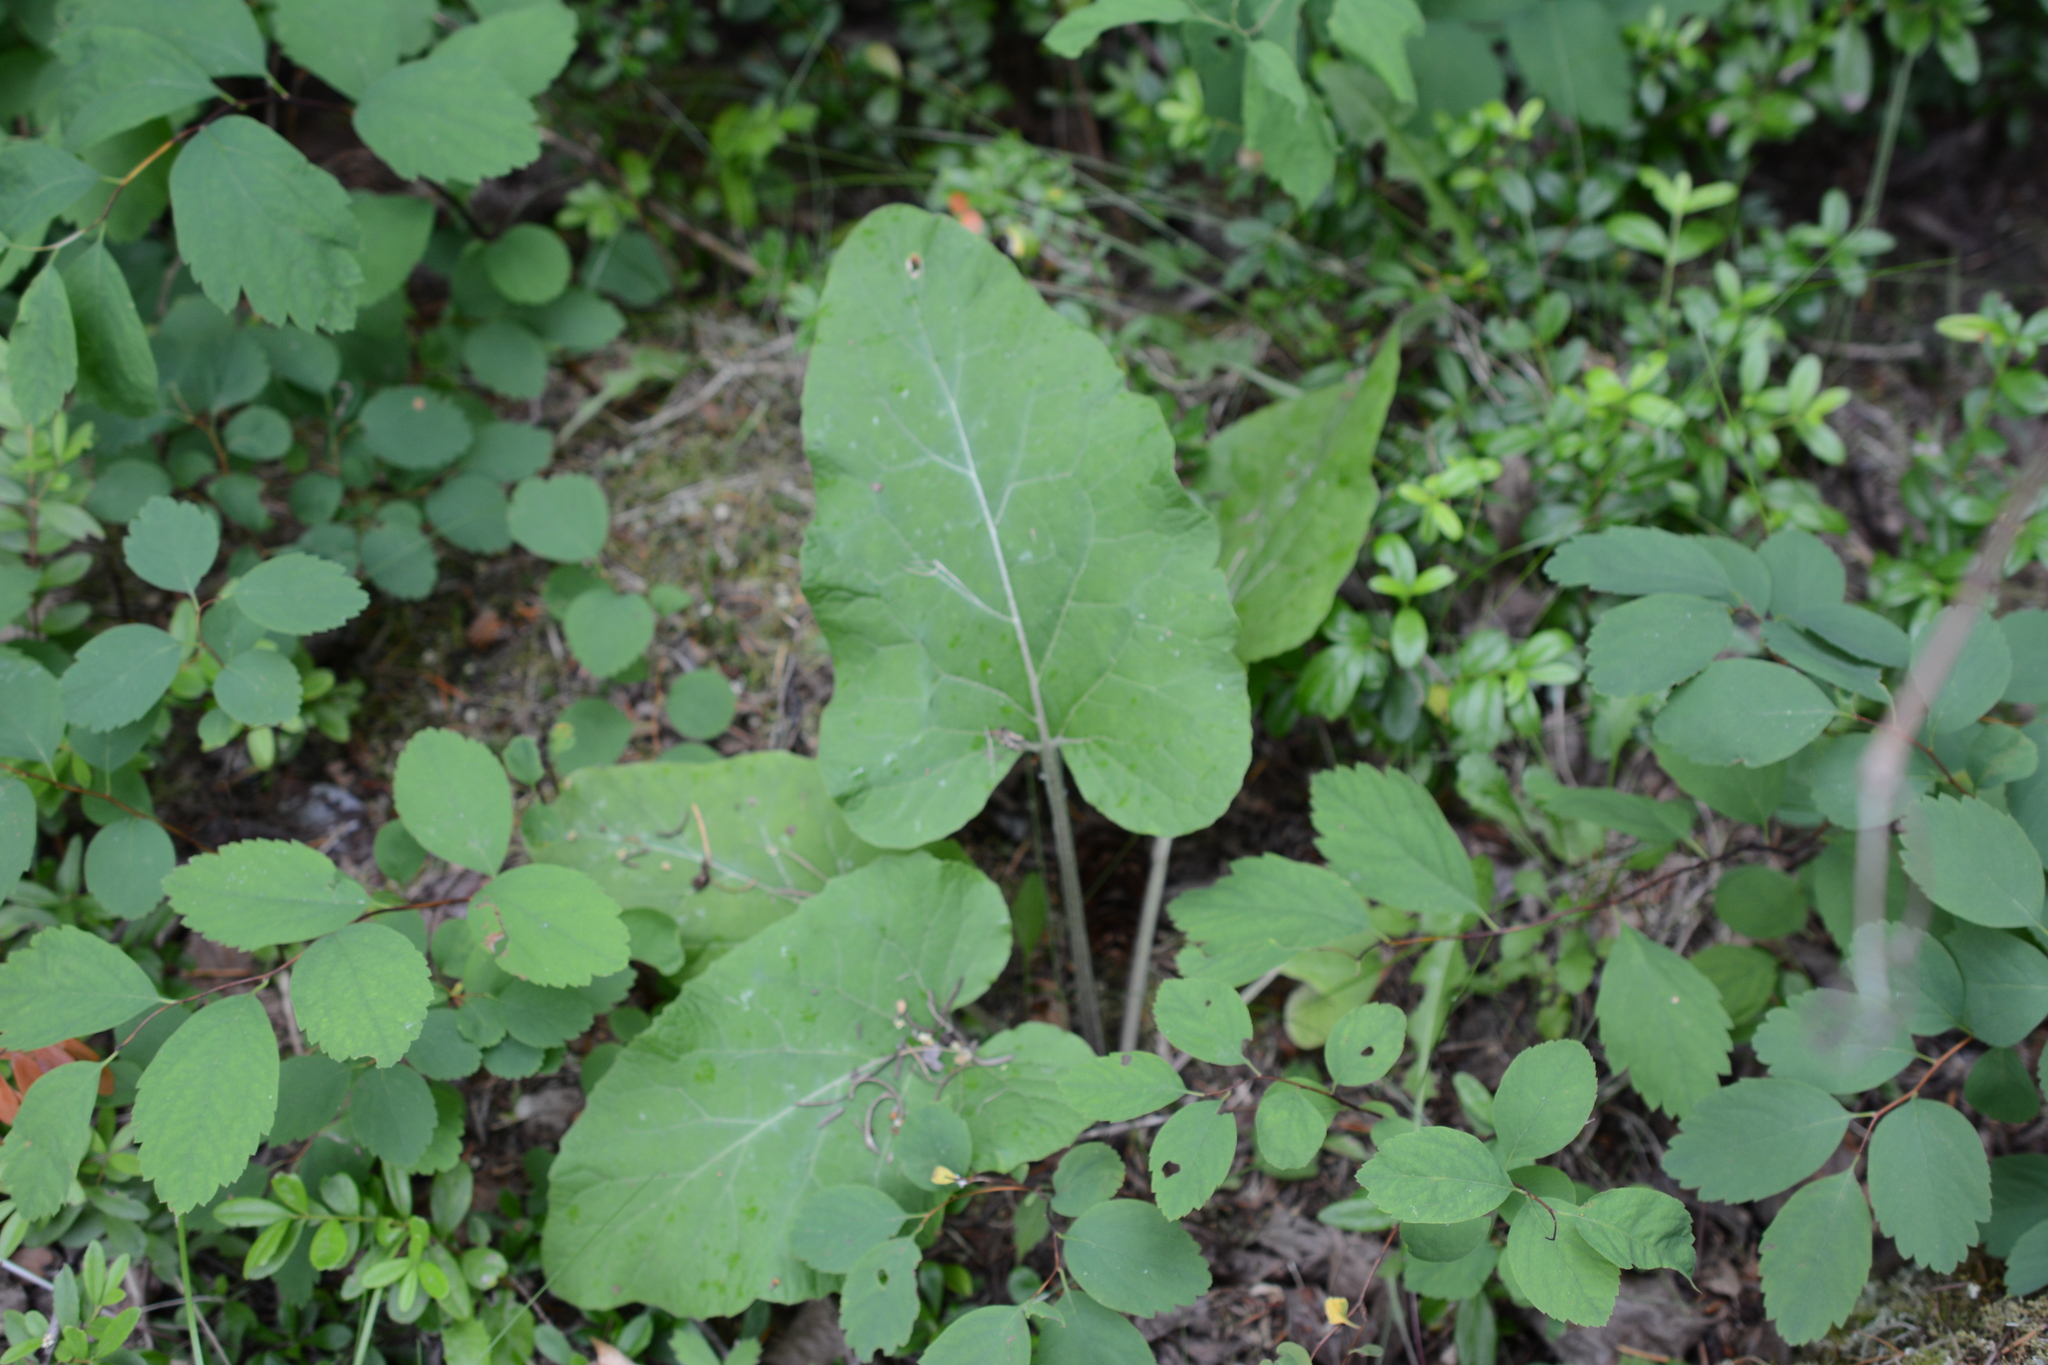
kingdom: Plantae
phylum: Tracheophyta
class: Magnoliopsida
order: Asterales
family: Asteraceae
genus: Arctium
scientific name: Arctium
